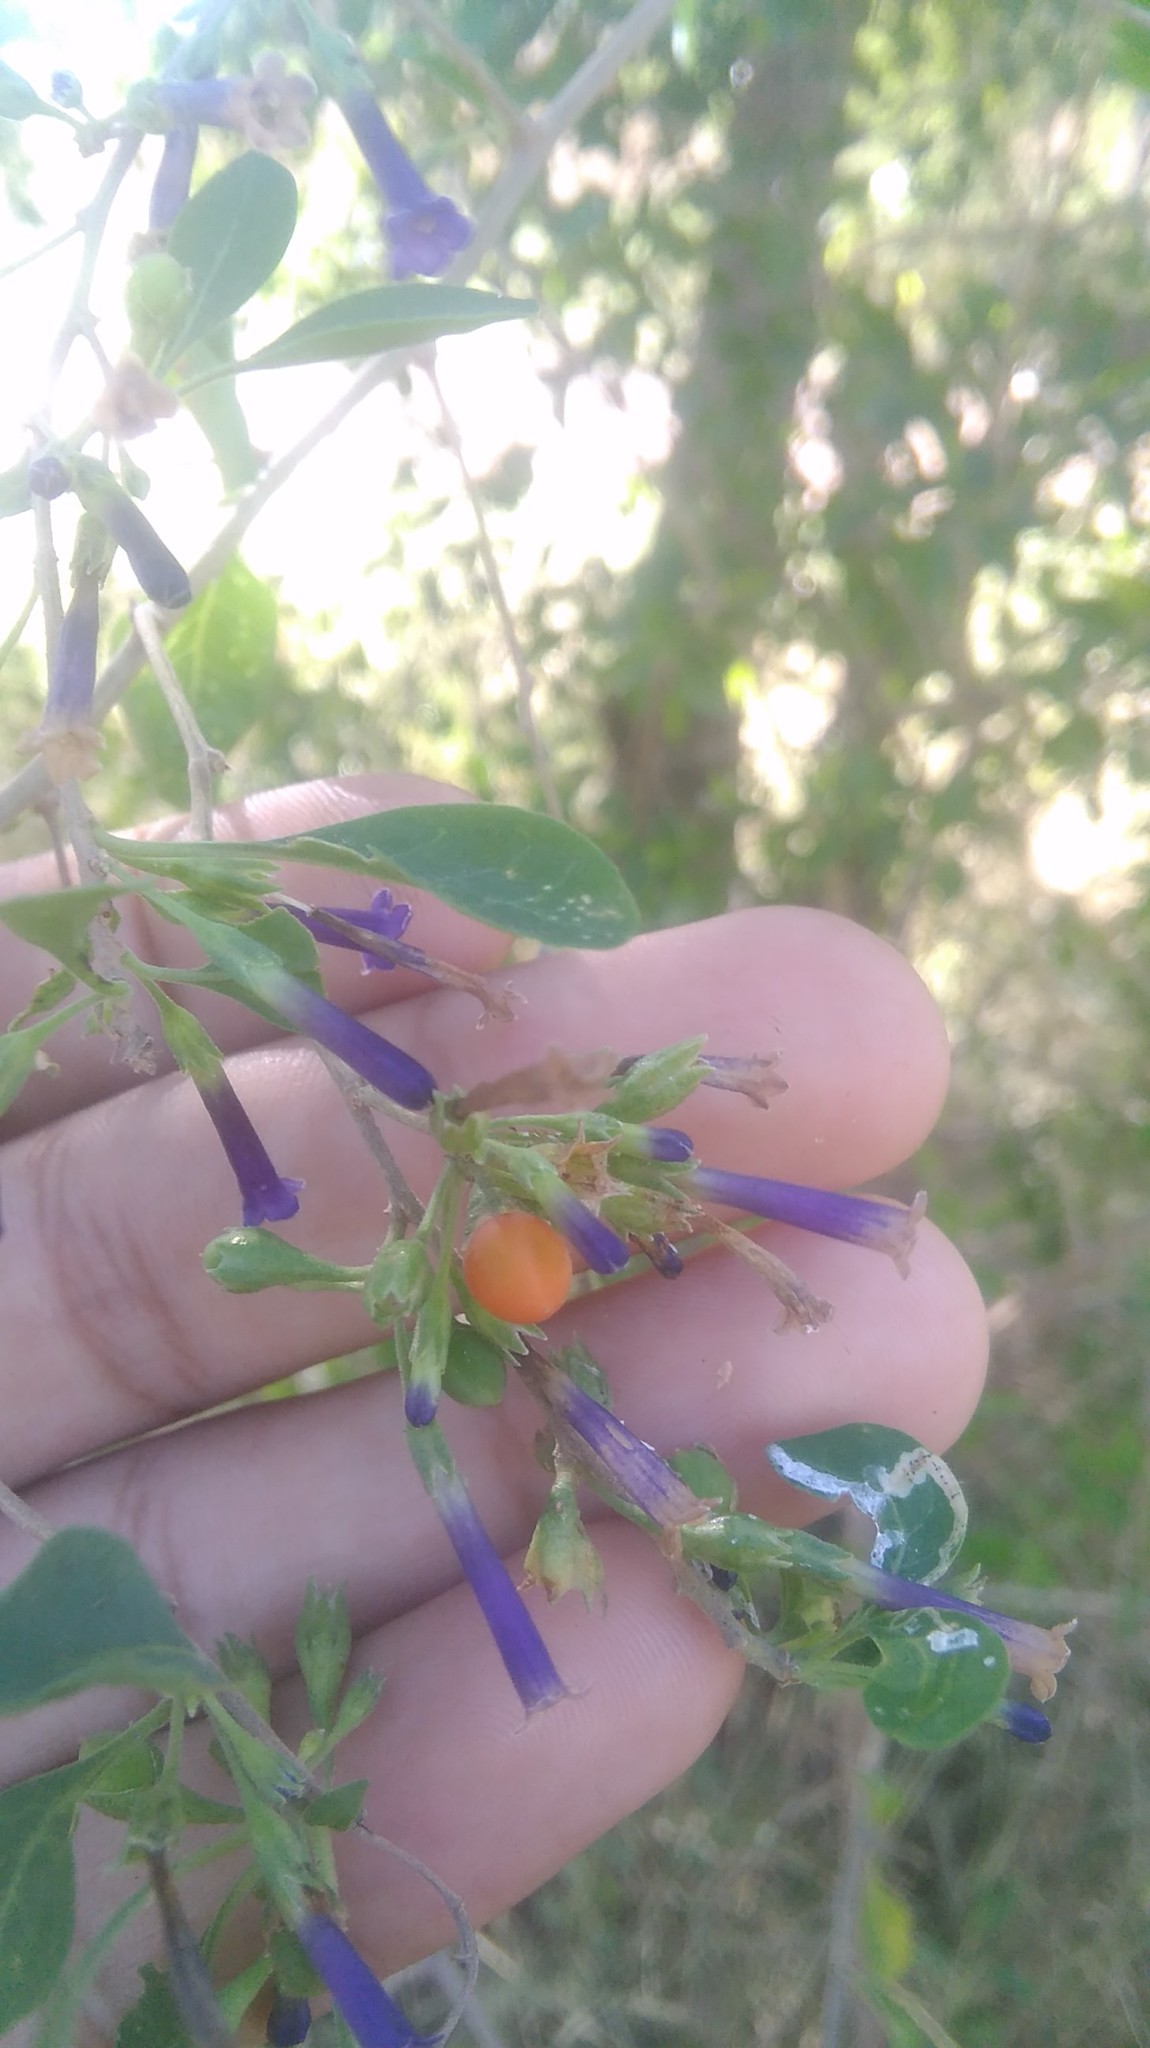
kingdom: Plantae
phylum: Tracheophyta
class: Magnoliopsida
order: Solanales
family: Solanaceae
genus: Lycium
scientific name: Lycium cestroides
